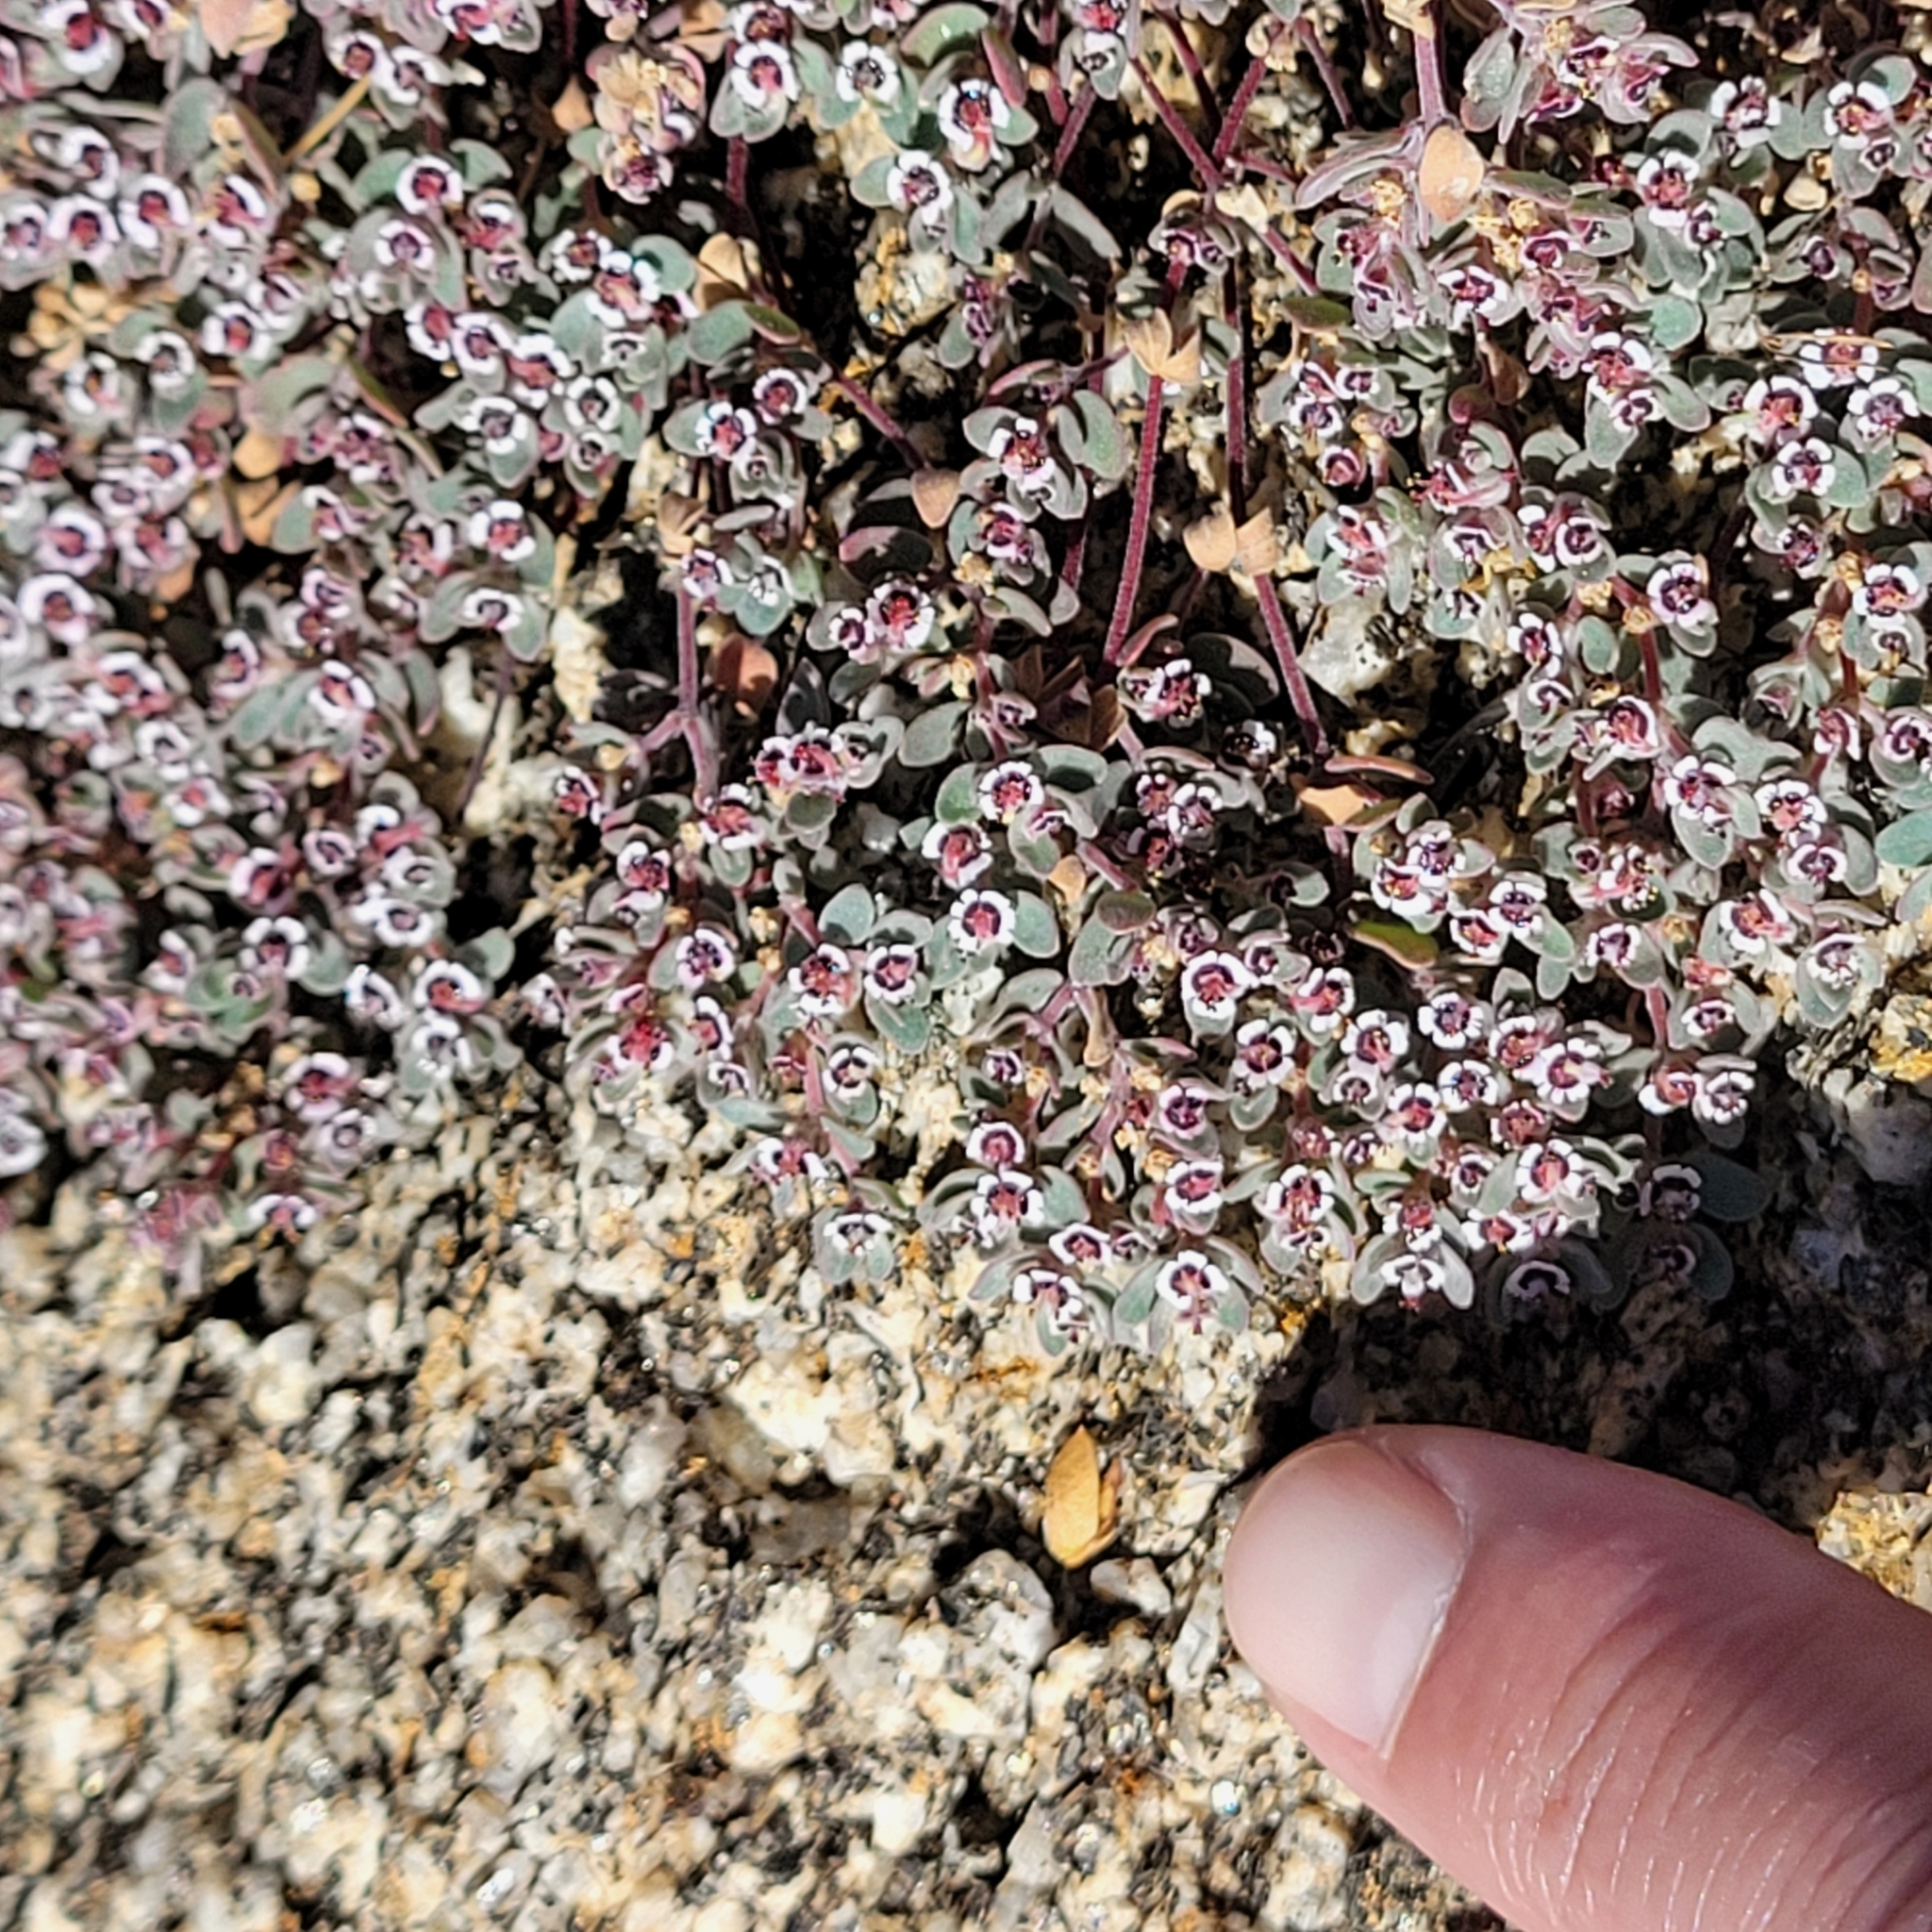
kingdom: Plantae
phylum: Tracheophyta
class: Magnoliopsida
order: Malpighiales
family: Euphorbiaceae
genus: Euphorbia
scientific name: Euphorbia melanadenia
